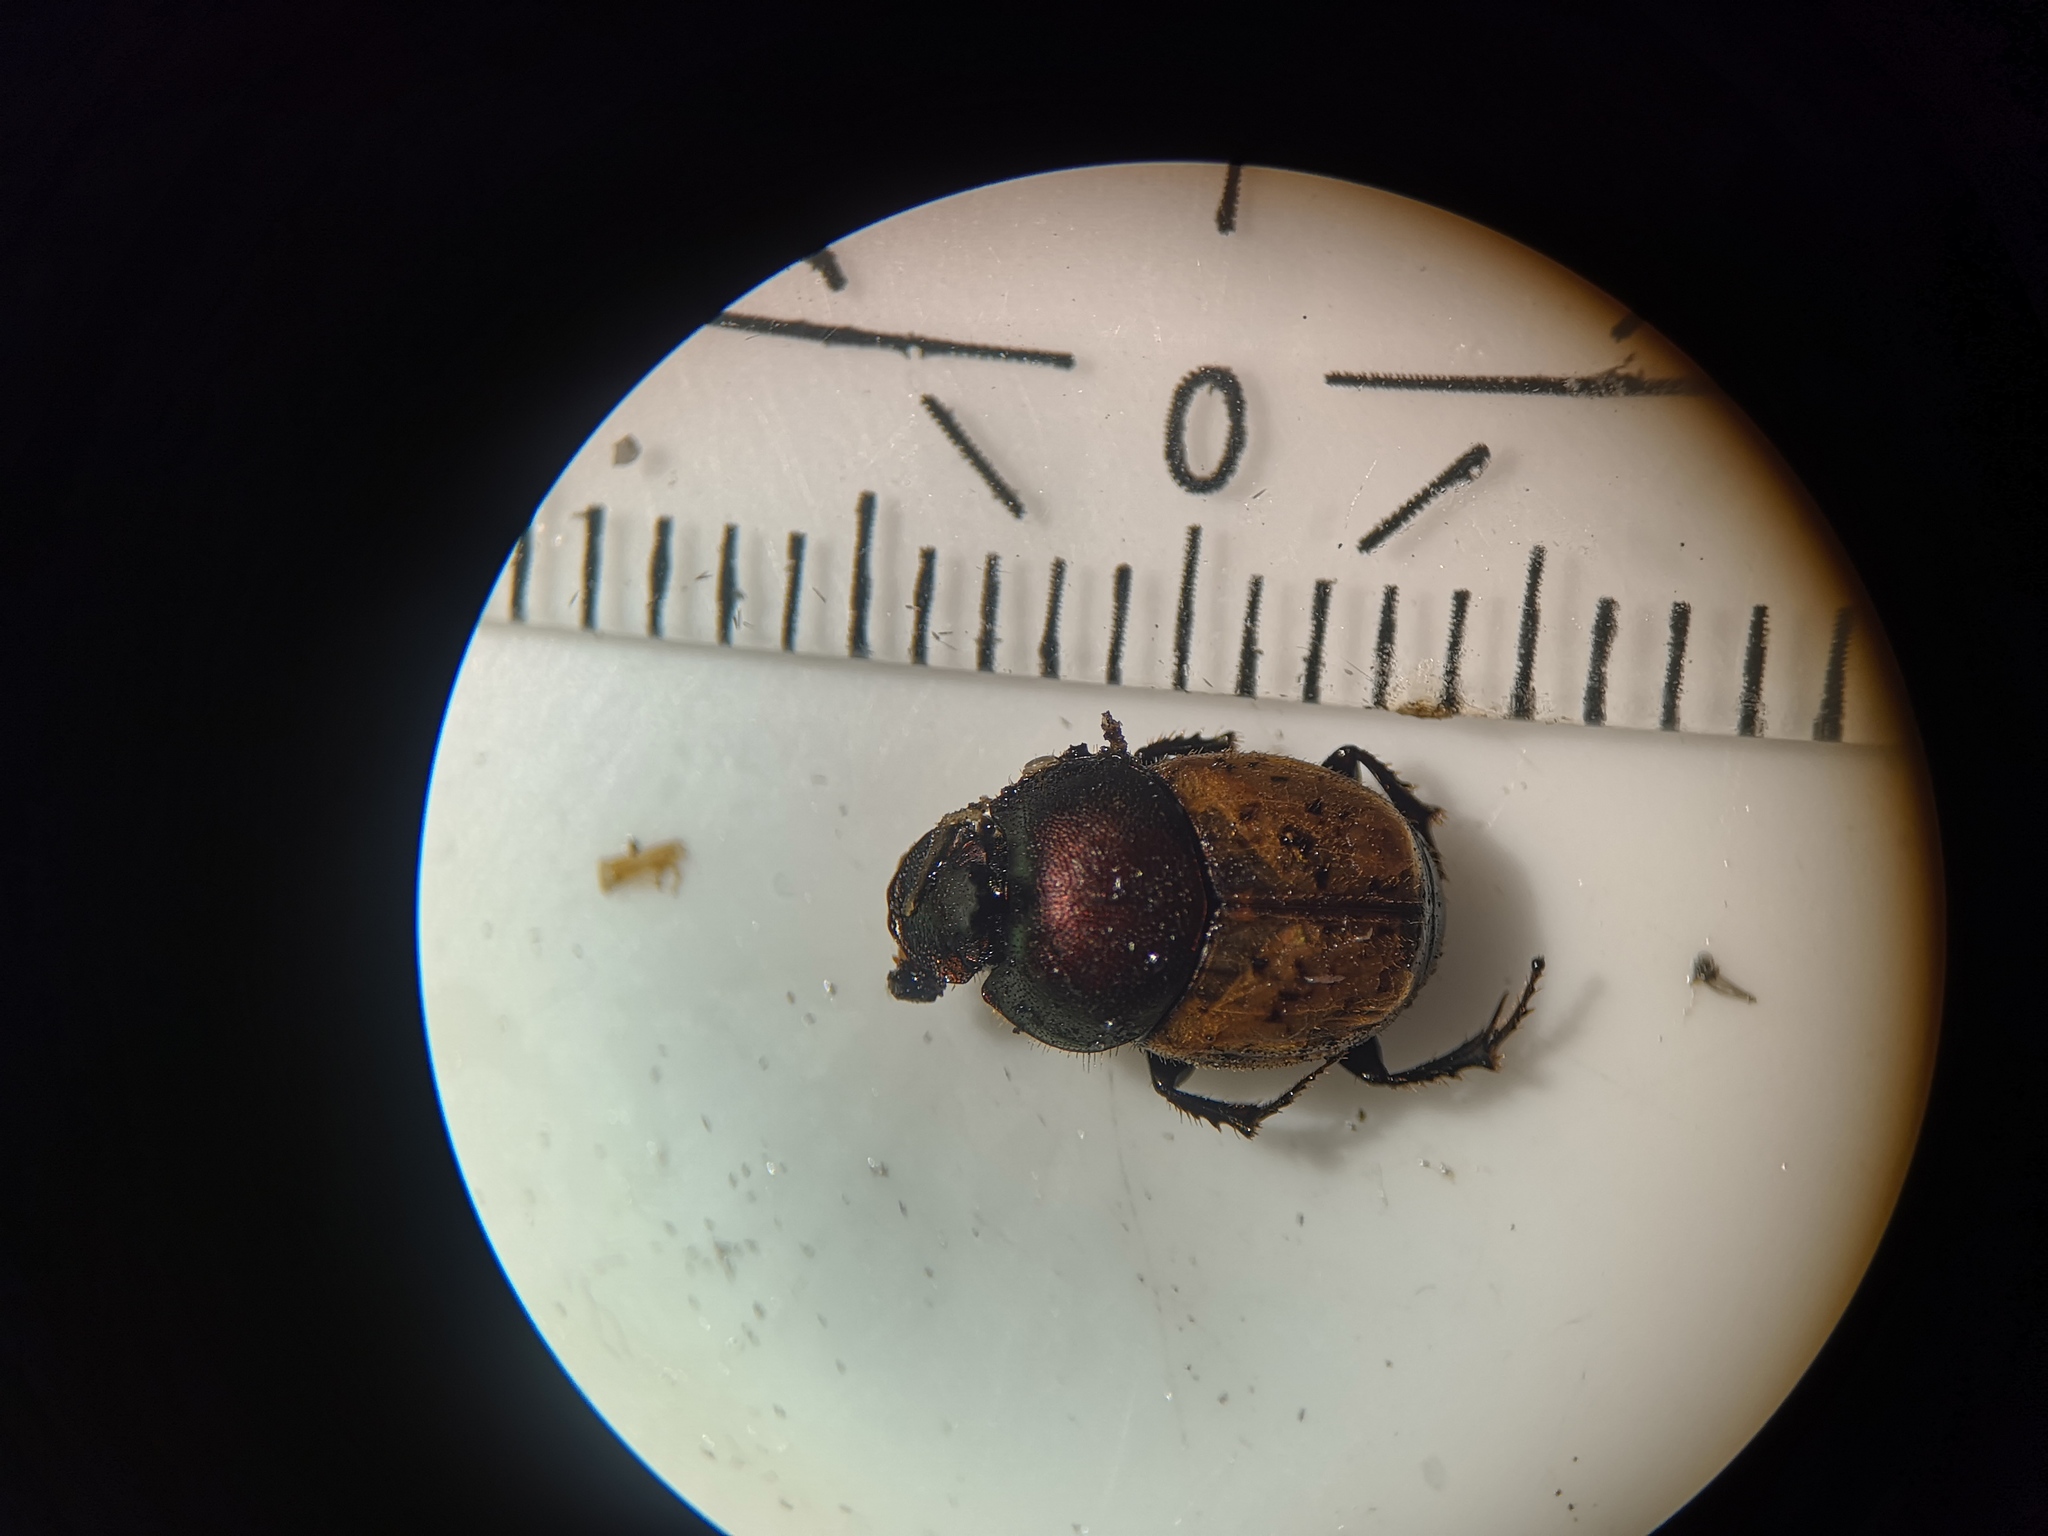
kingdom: Animalia
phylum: Arthropoda
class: Insecta
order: Coleoptera
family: Scarabaeidae
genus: Onthophagus
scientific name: Onthophagus coenobita
